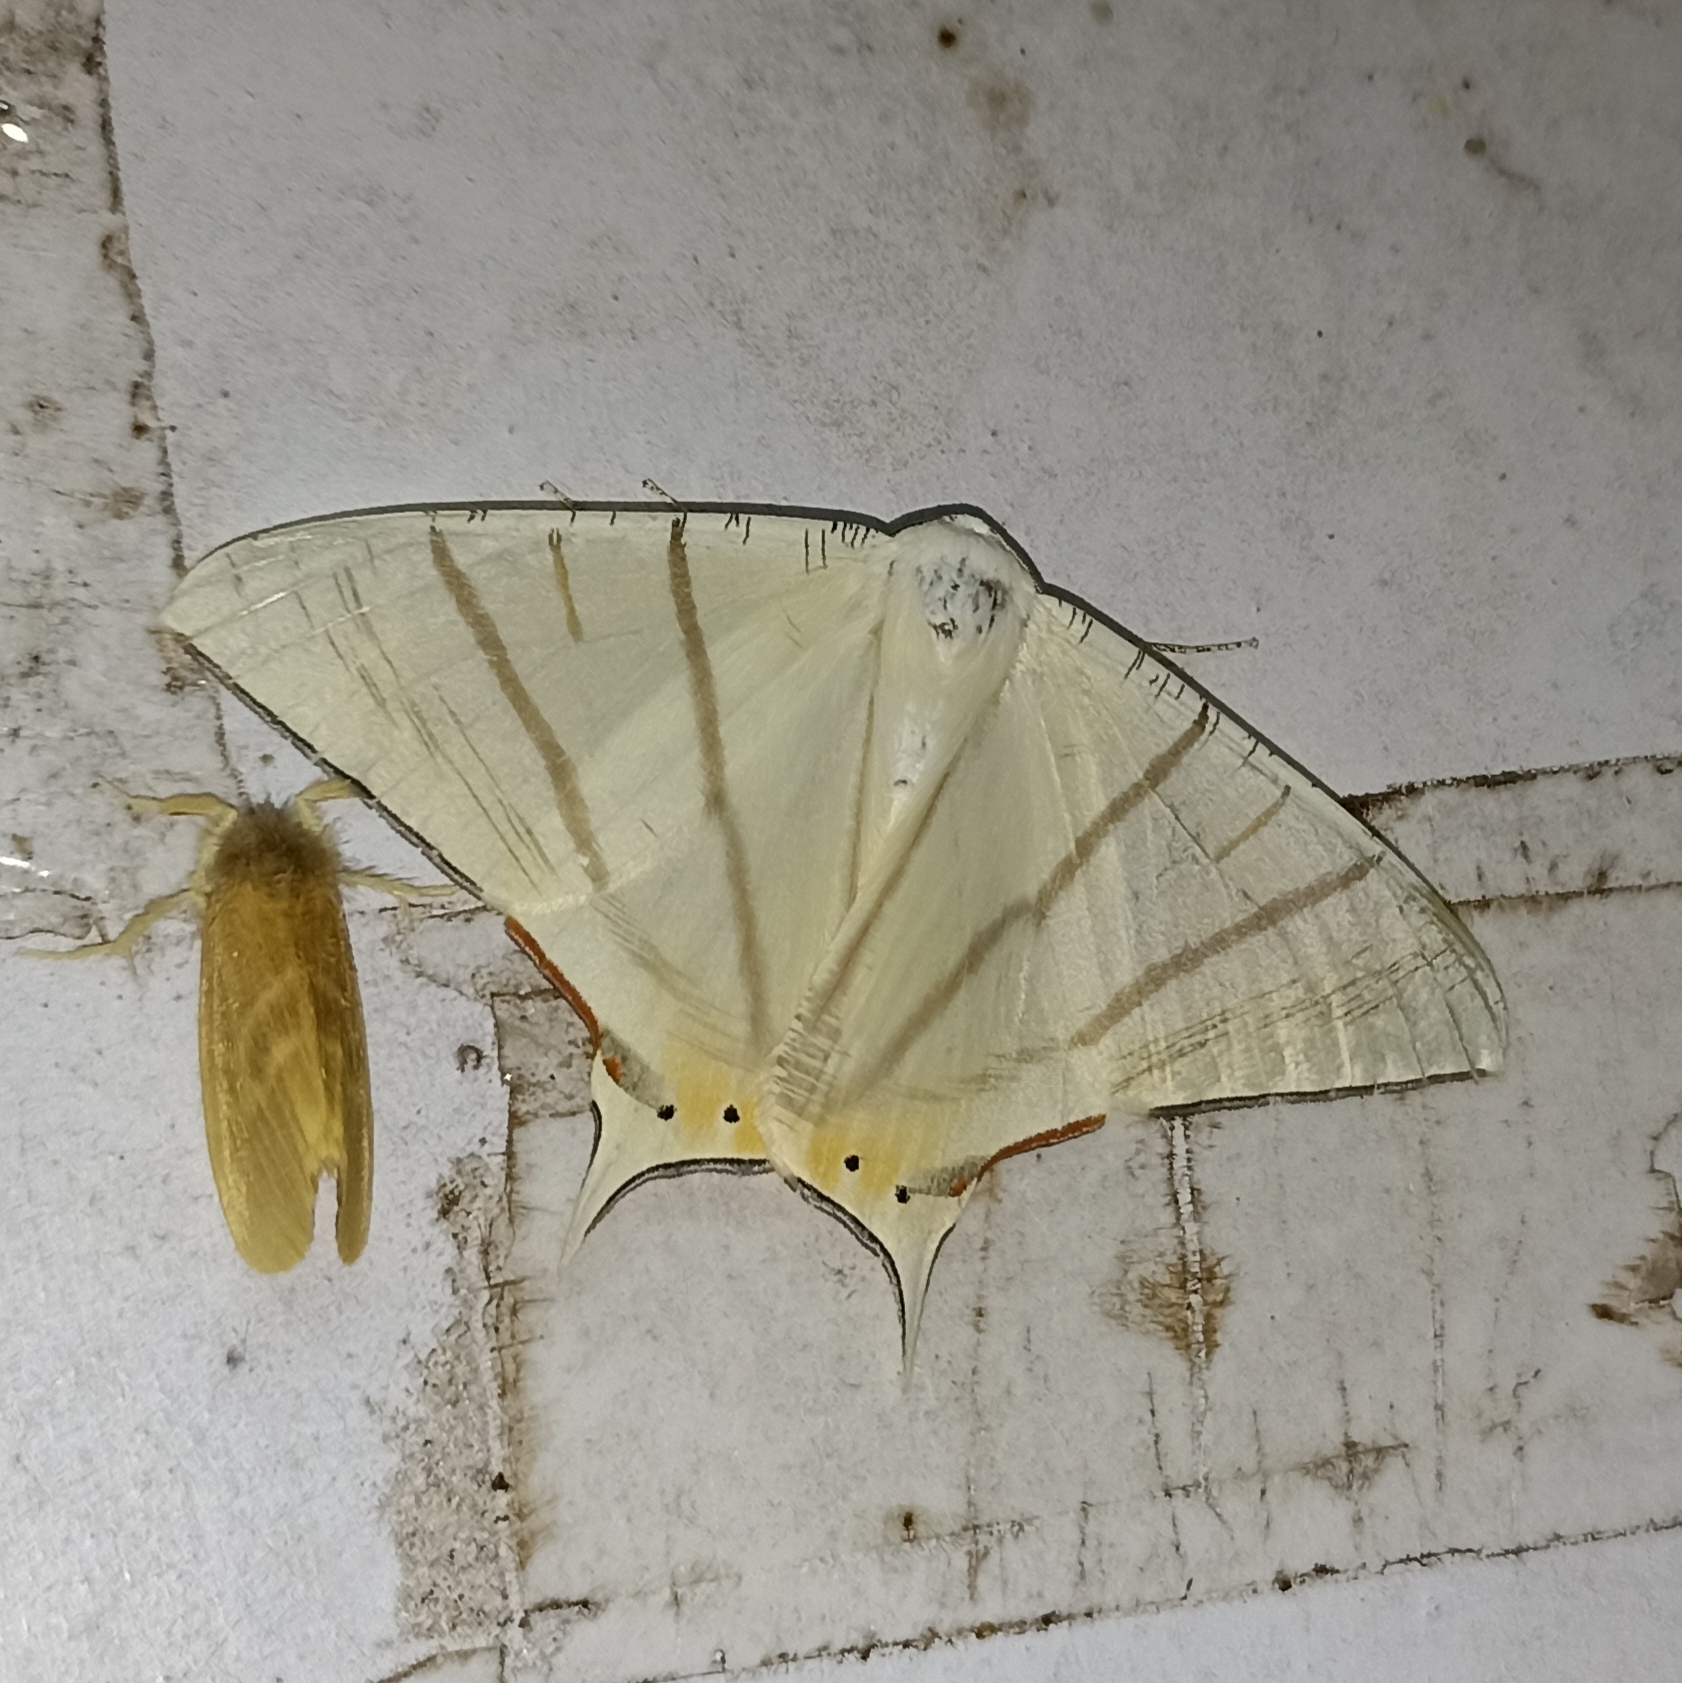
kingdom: Animalia
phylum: Arthropoda
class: Insecta
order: Lepidoptera
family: Geometridae
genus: Ourapteryx
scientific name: Ourapteryx marginata
